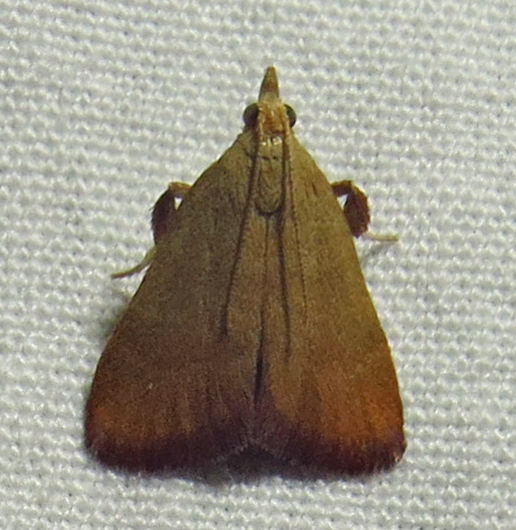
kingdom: Animalia
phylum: Arthropoda
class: Insecta
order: Lepidoptera
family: Pyralidae
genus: Condylolomia
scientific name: Condylolomia participialis
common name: Drab condylolomia moth
